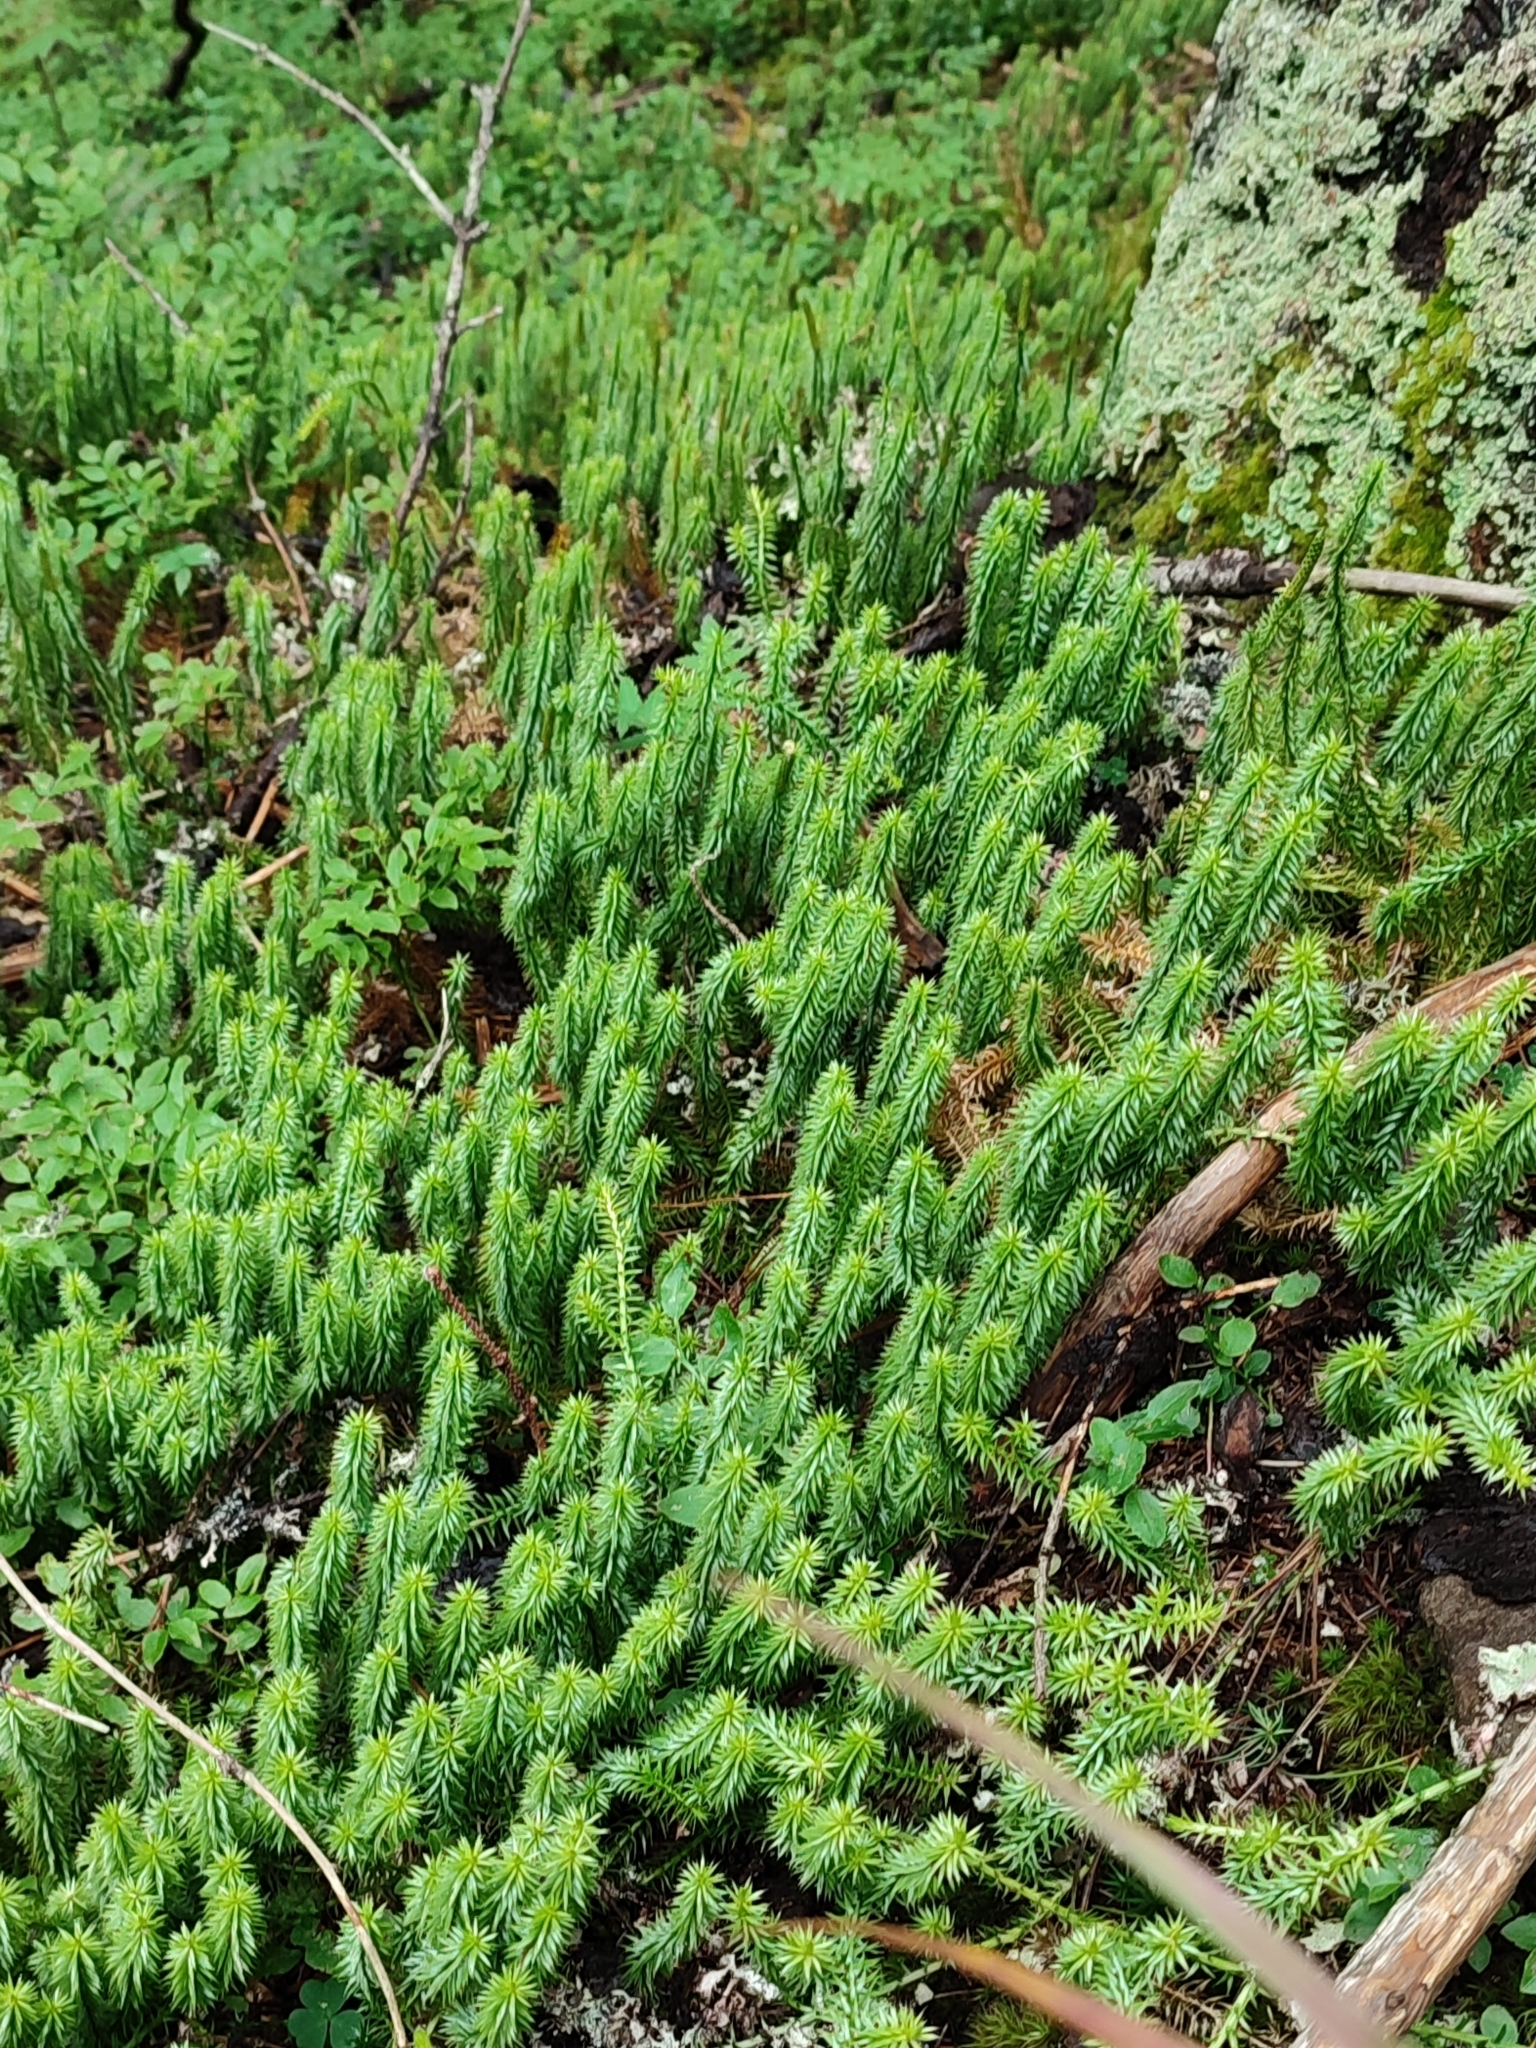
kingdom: Plantae
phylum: Tracheophyta
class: Lycopodiopsida
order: Lycopodiales
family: Lycopodiaceae
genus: Spinulum
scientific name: Spinulum annotinum
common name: Interrupted club-moss
